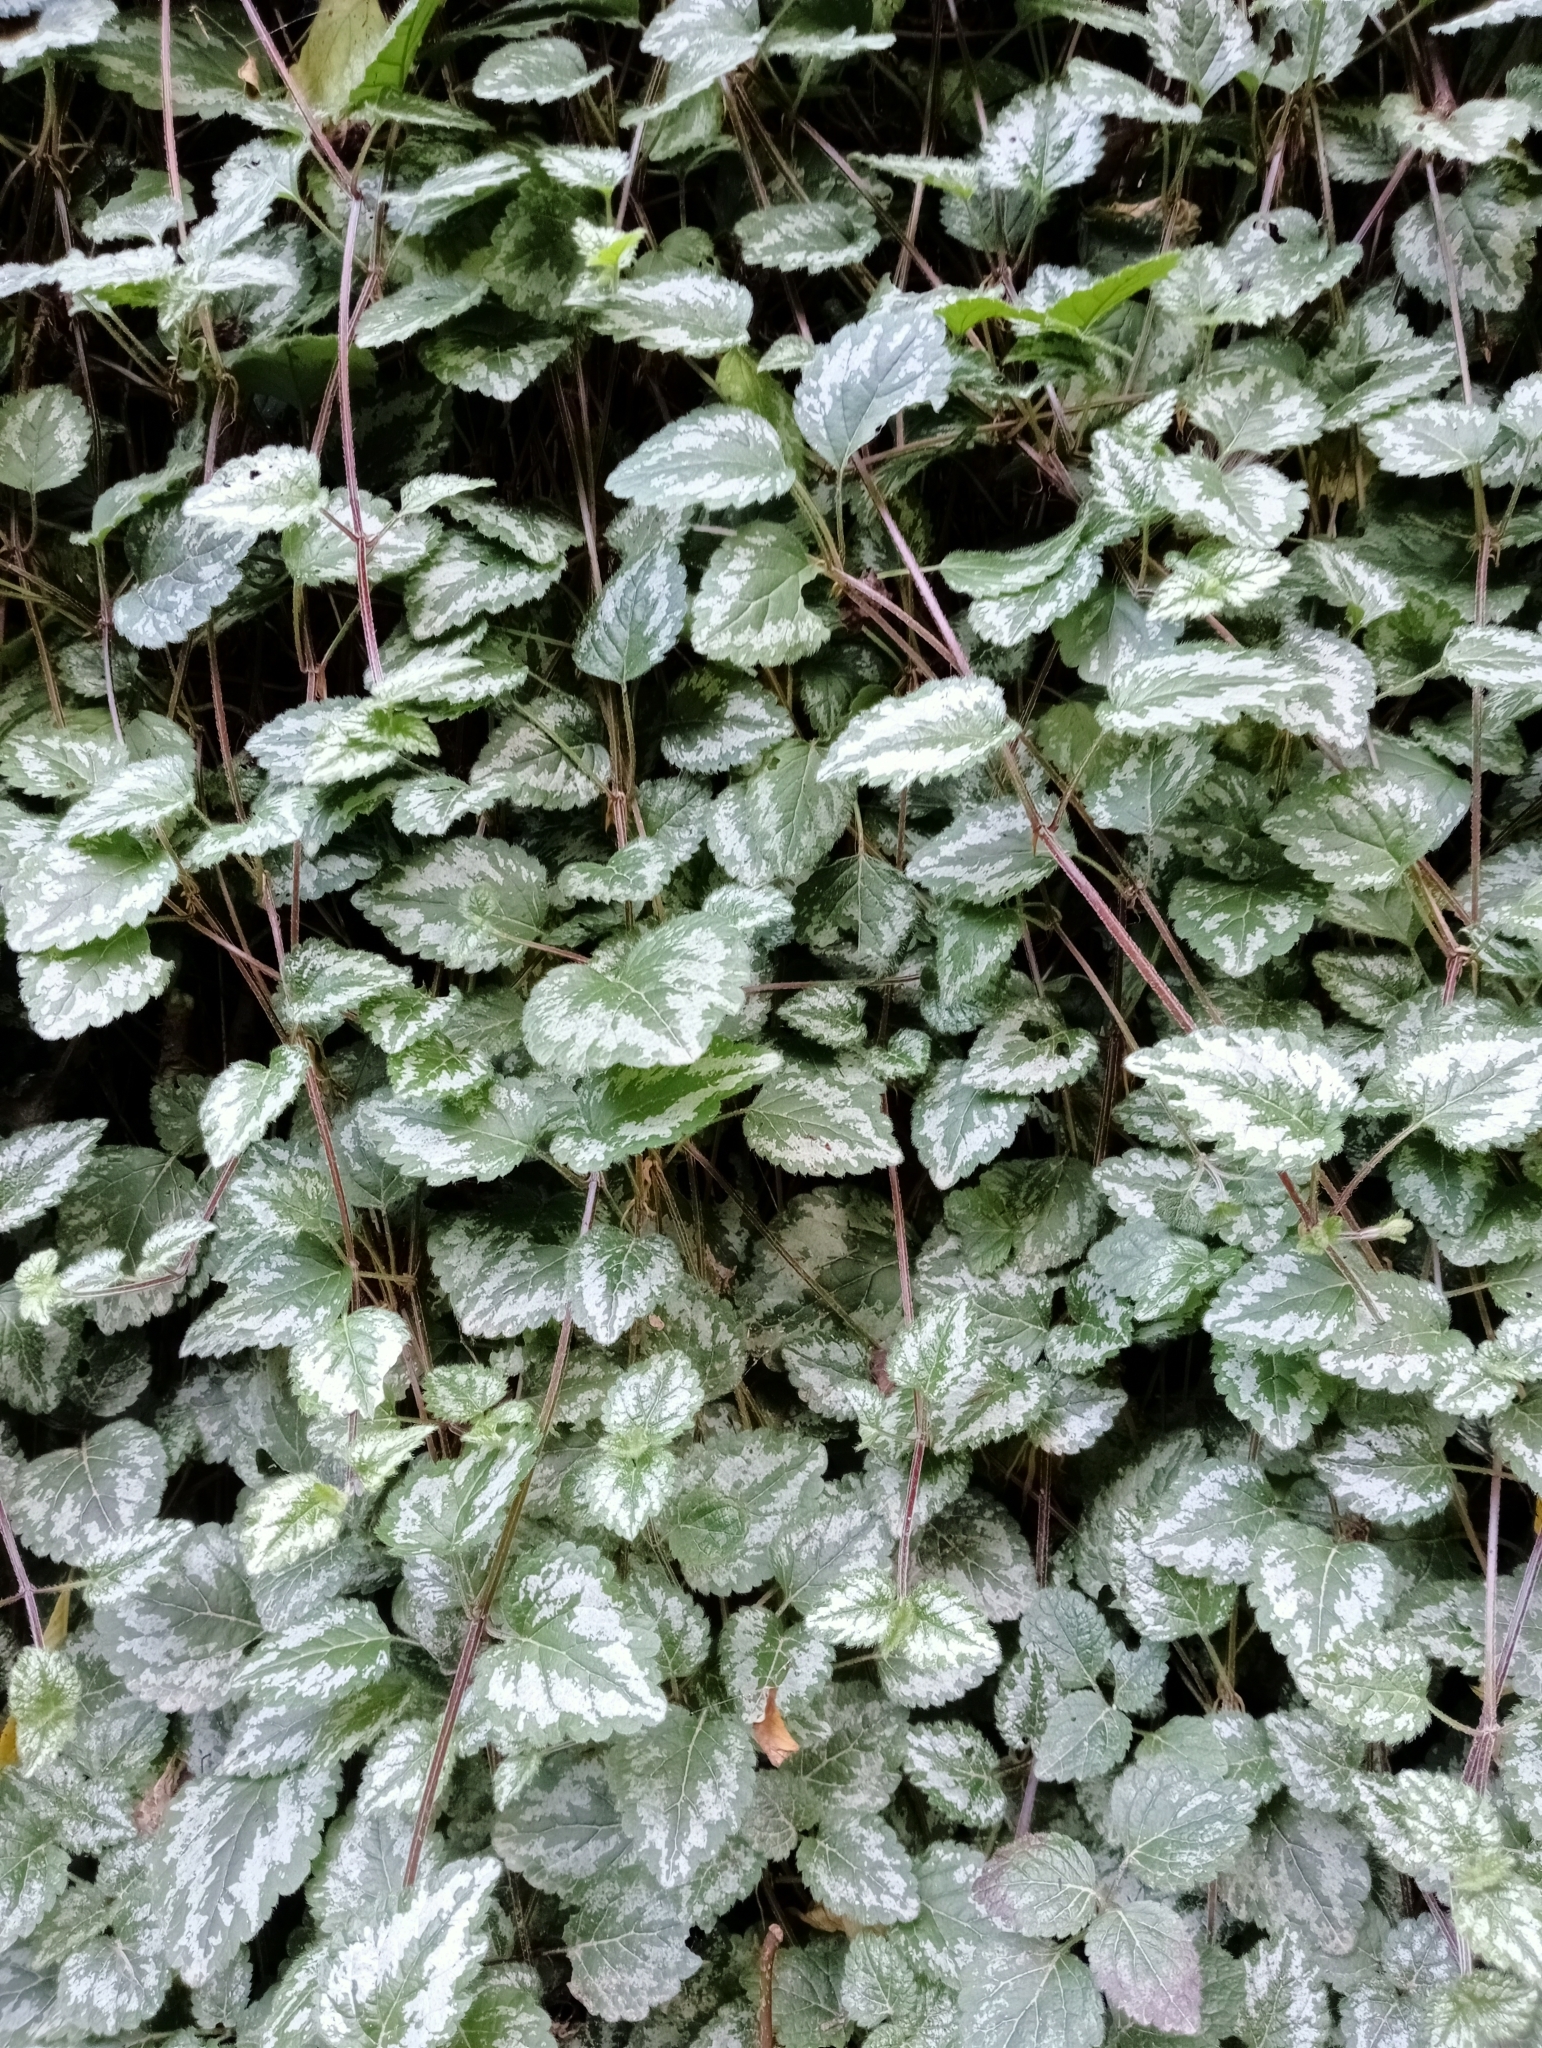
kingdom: Plantae
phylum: Tracheophyta
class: Magnoliopsida
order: Lamiales
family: Lamiaceae
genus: Lamium
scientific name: Lamium galeobdolon
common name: Yellow archangel
